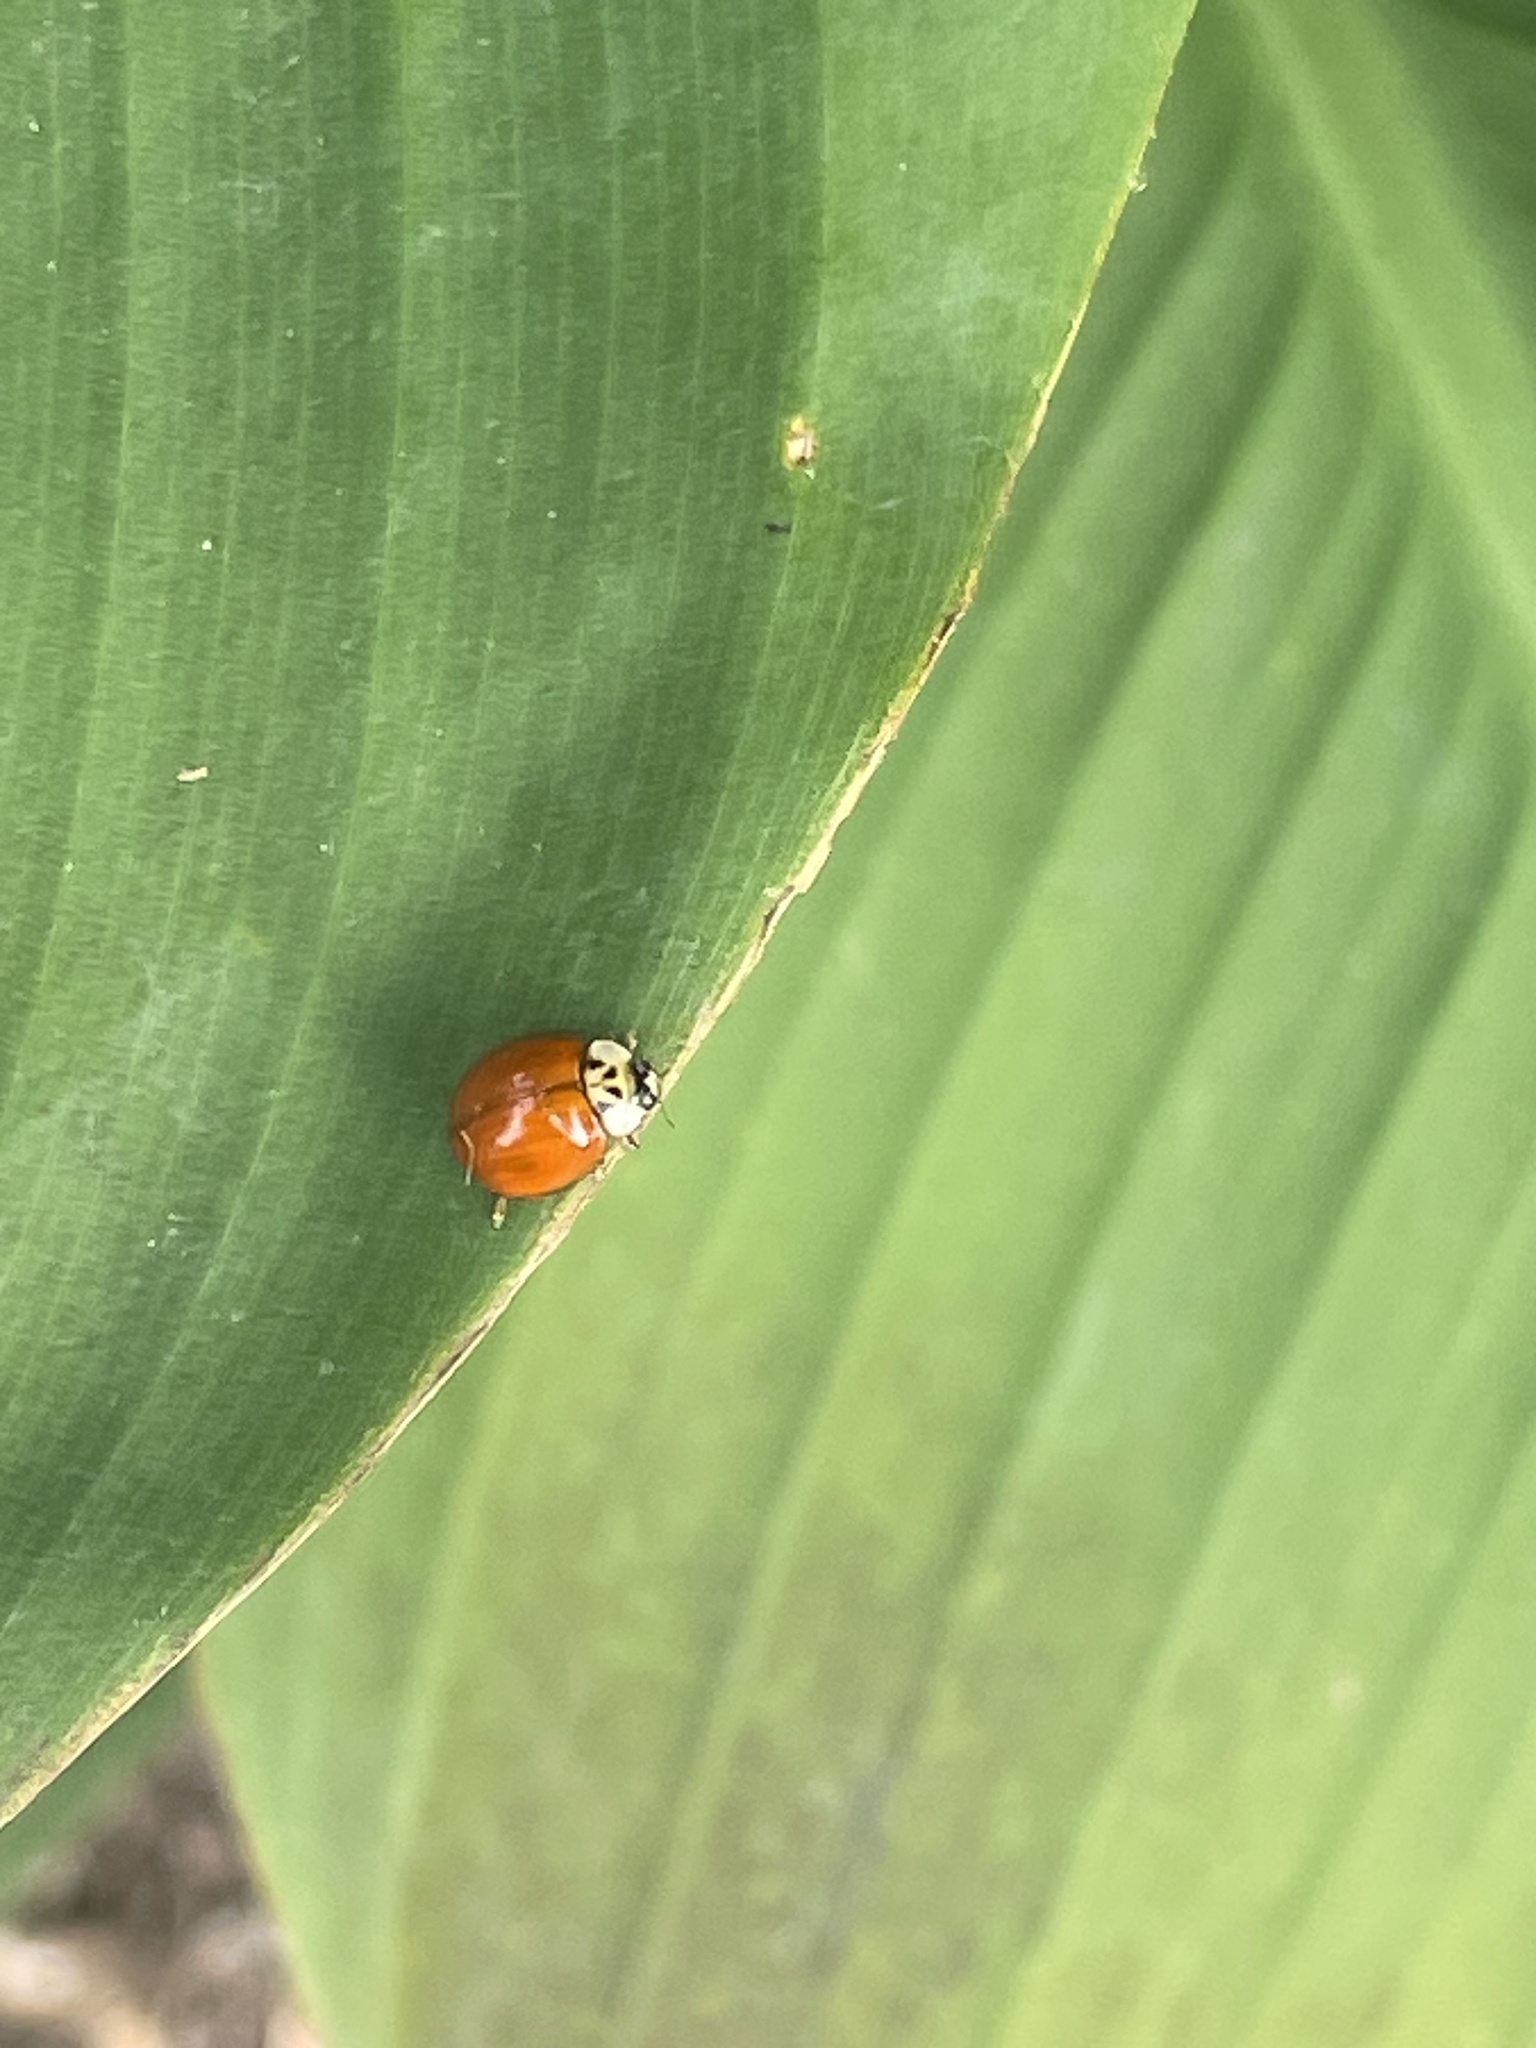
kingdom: Animalia
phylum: Arthropoda
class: Insecta
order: Coleoptera
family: Coccinellidae
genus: Harmonia
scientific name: Harmonia axyridis
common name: Harlequin ladybird
